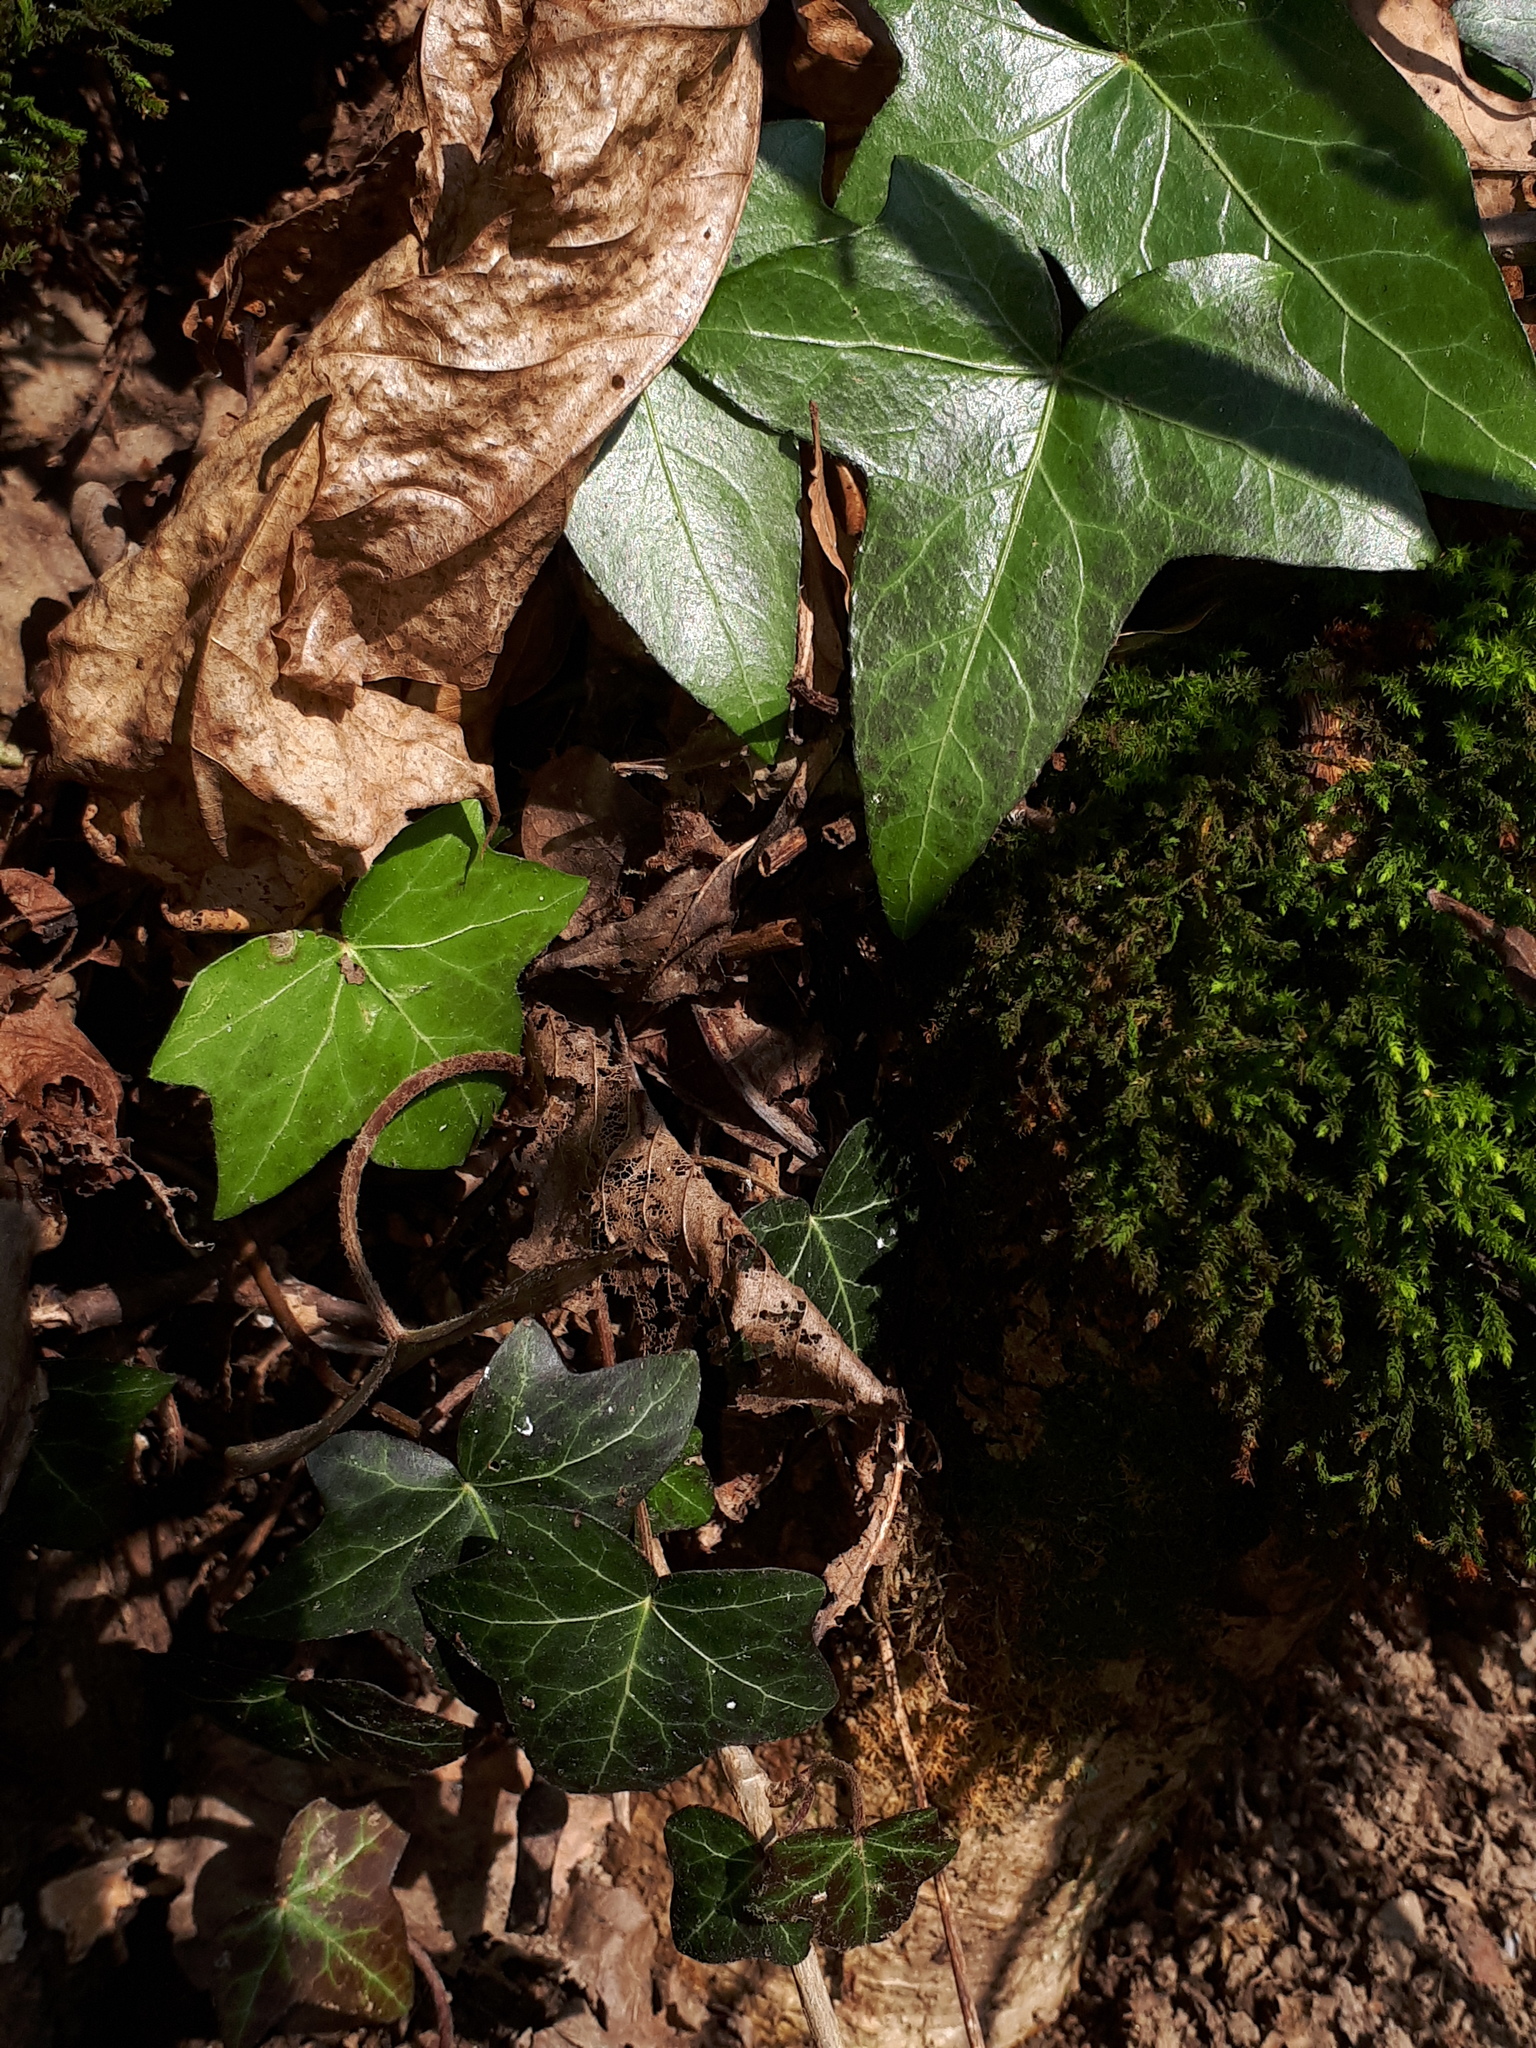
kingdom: Plantae
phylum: Tracheophyta
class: Magnoliopsida
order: Apiales
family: Araliaceae
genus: Hedera
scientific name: Hedera helix
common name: Ivy
